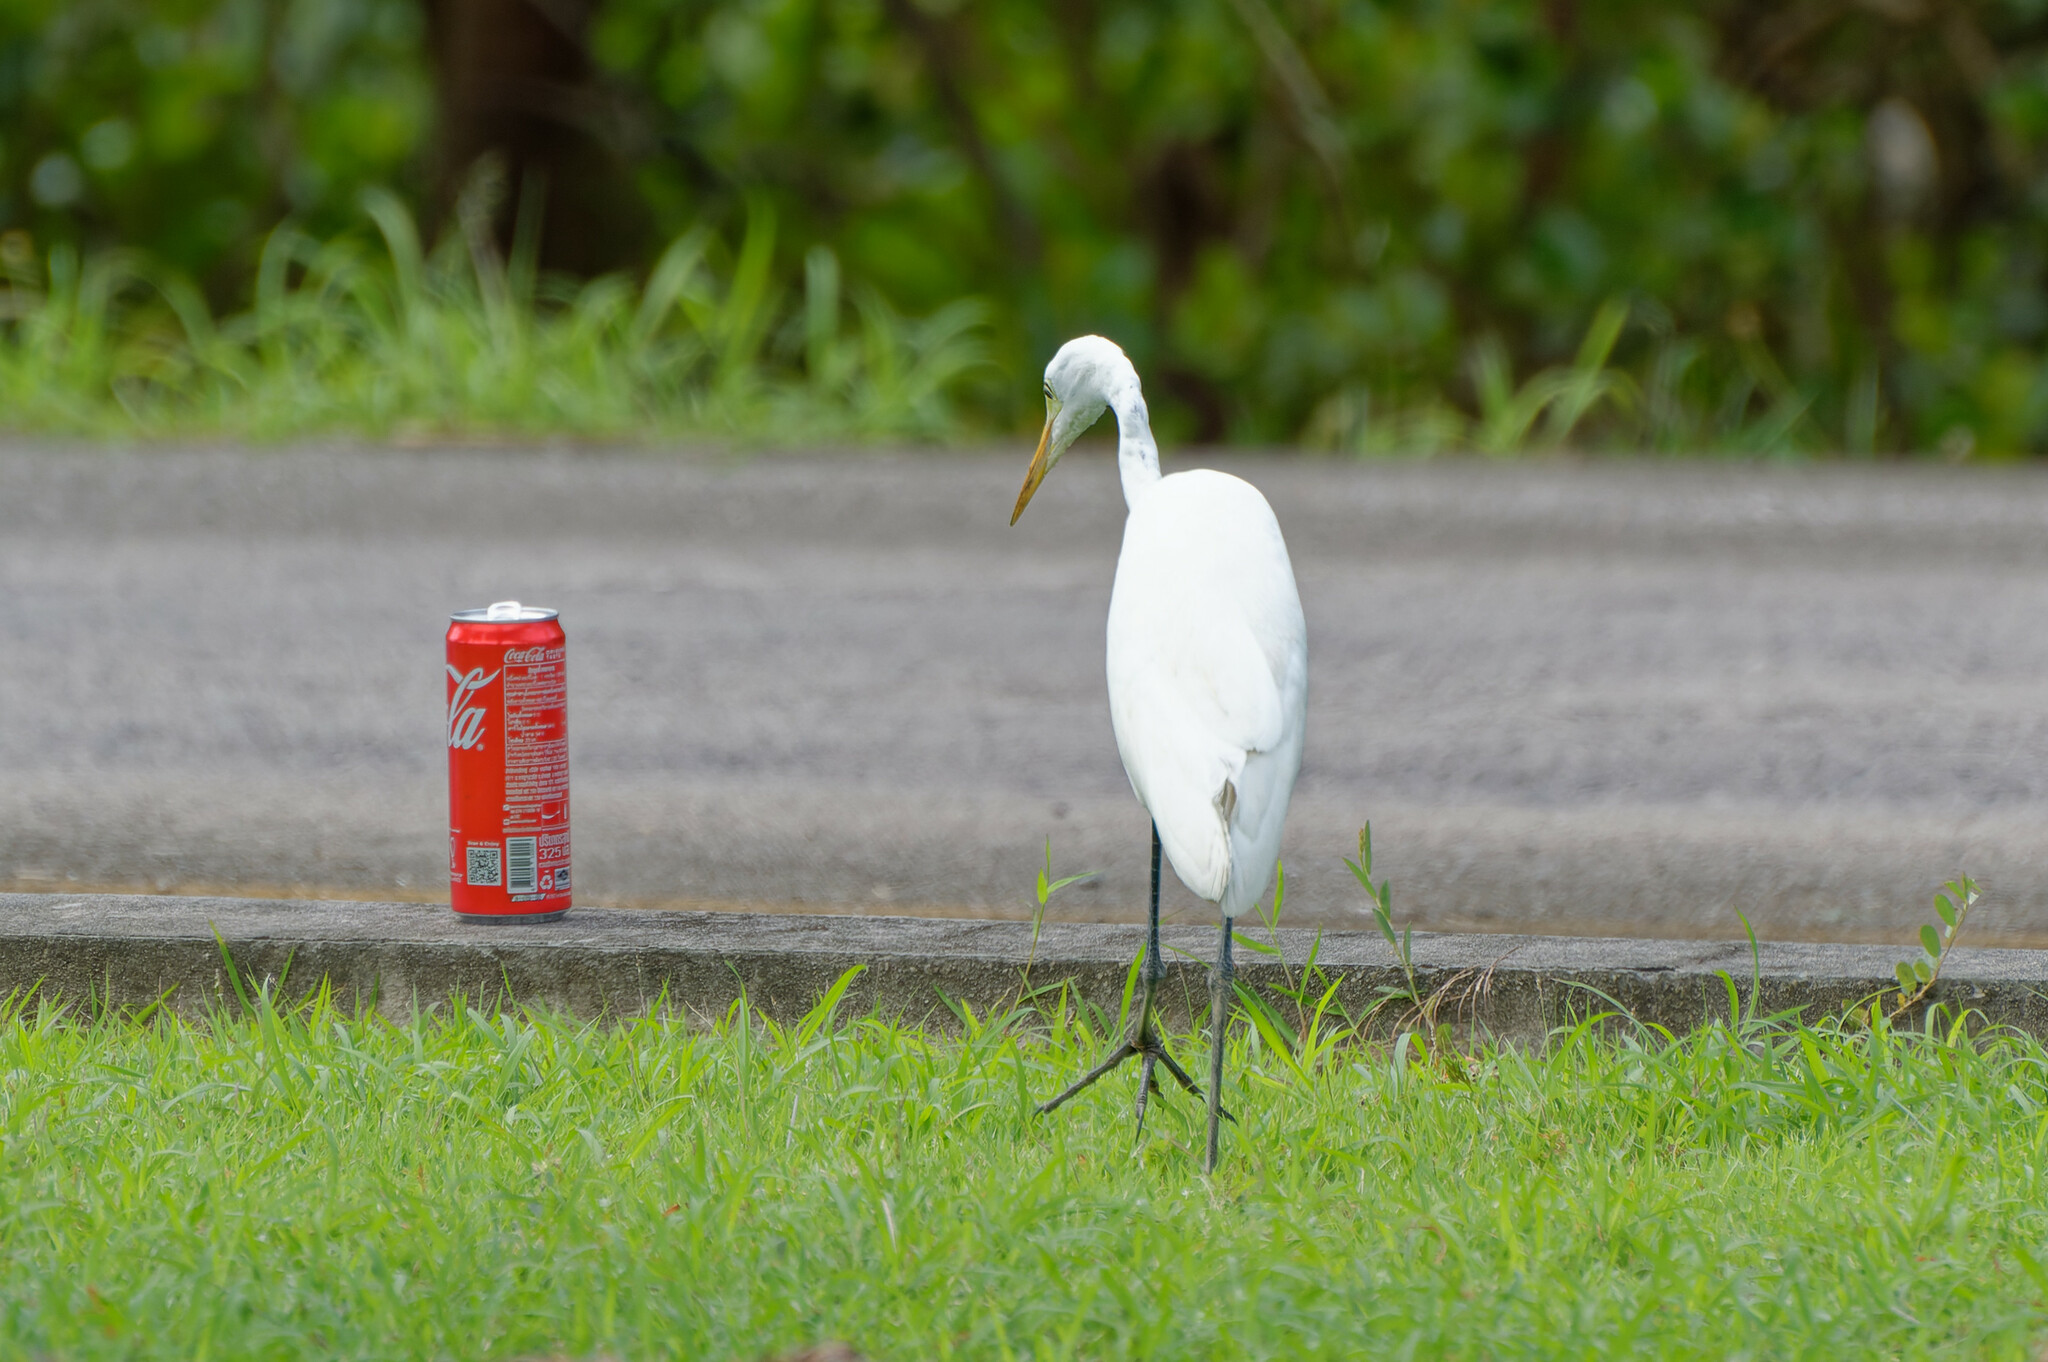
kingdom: Animalia
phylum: Chordata
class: Aves
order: Pelecaniformes
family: Ardeidae
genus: Egretta
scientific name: Egretta intermedia
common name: Intermediate egret
